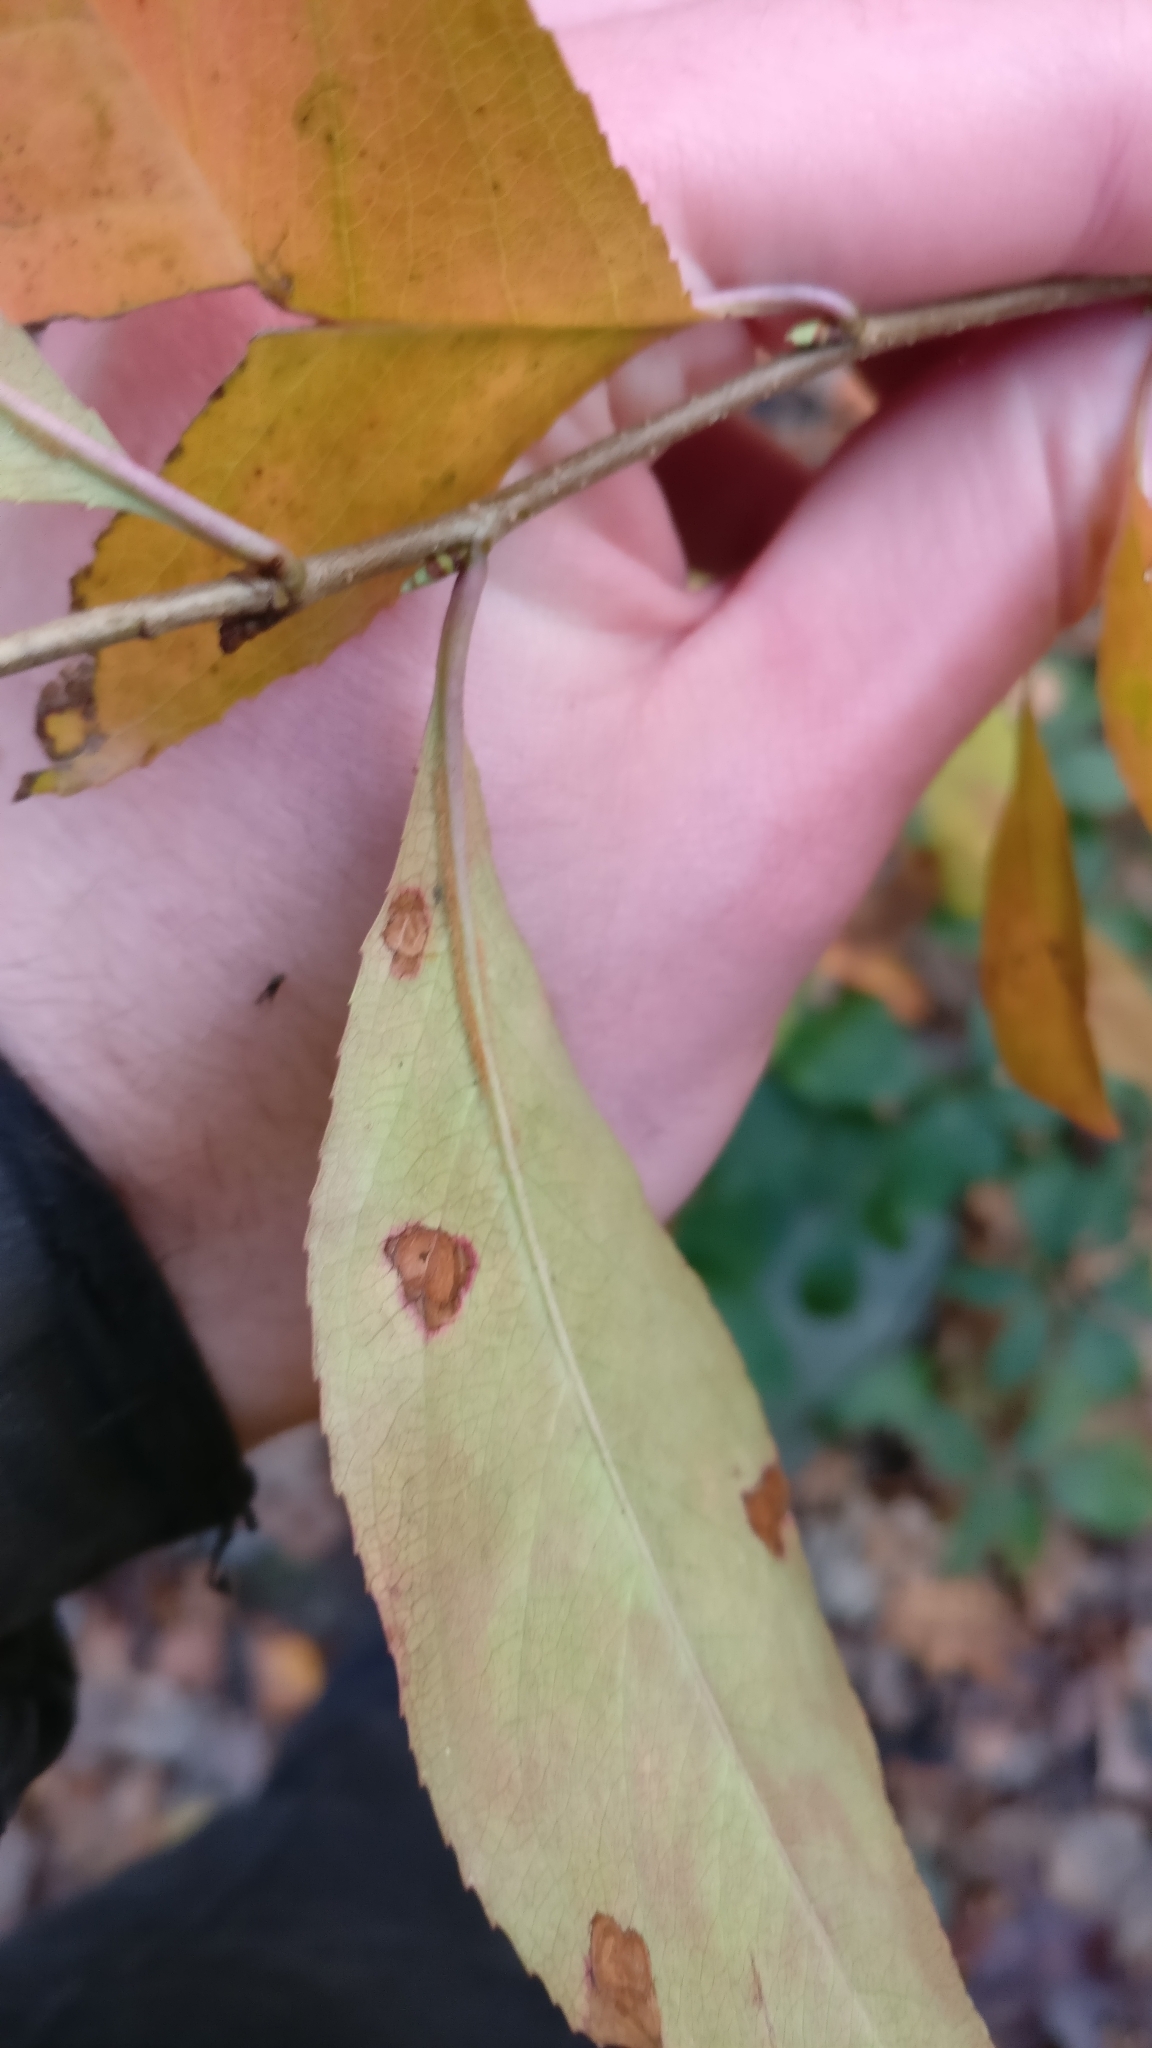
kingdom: Plantae
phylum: Tracheophyta
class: Magnoliopsida
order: Rosales
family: Rosaceae
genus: Prunus
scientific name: Prunus serotina
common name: Black cherry
